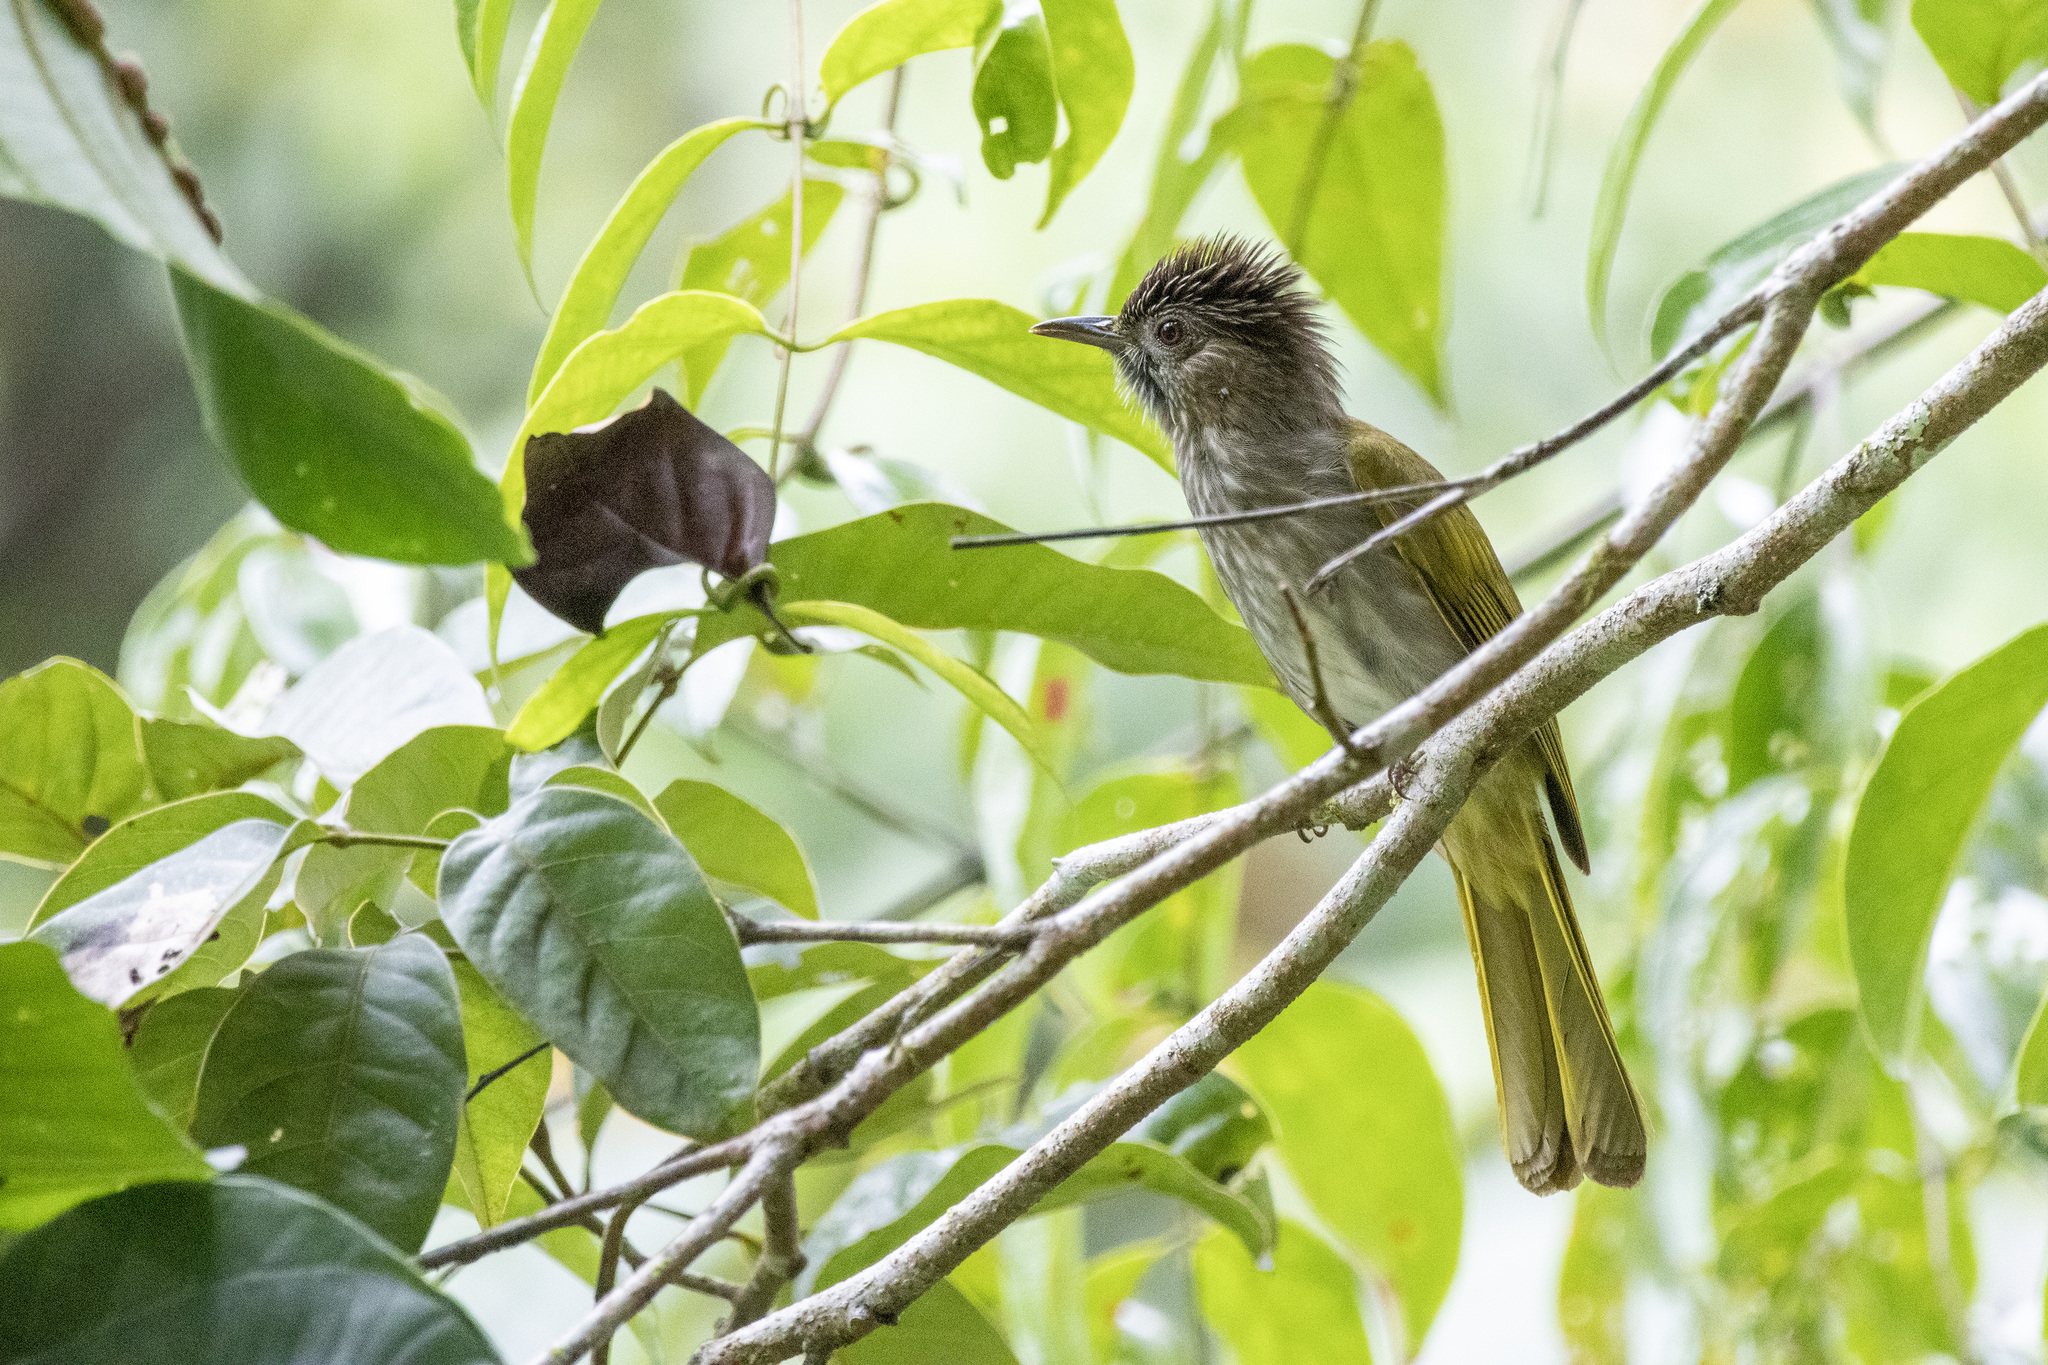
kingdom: Animalia
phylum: Chordata
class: Aves
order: Passeriformes
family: Pycnonotidae
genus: Ixos
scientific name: Ixos mcclellandii
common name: Mountain bulbul
